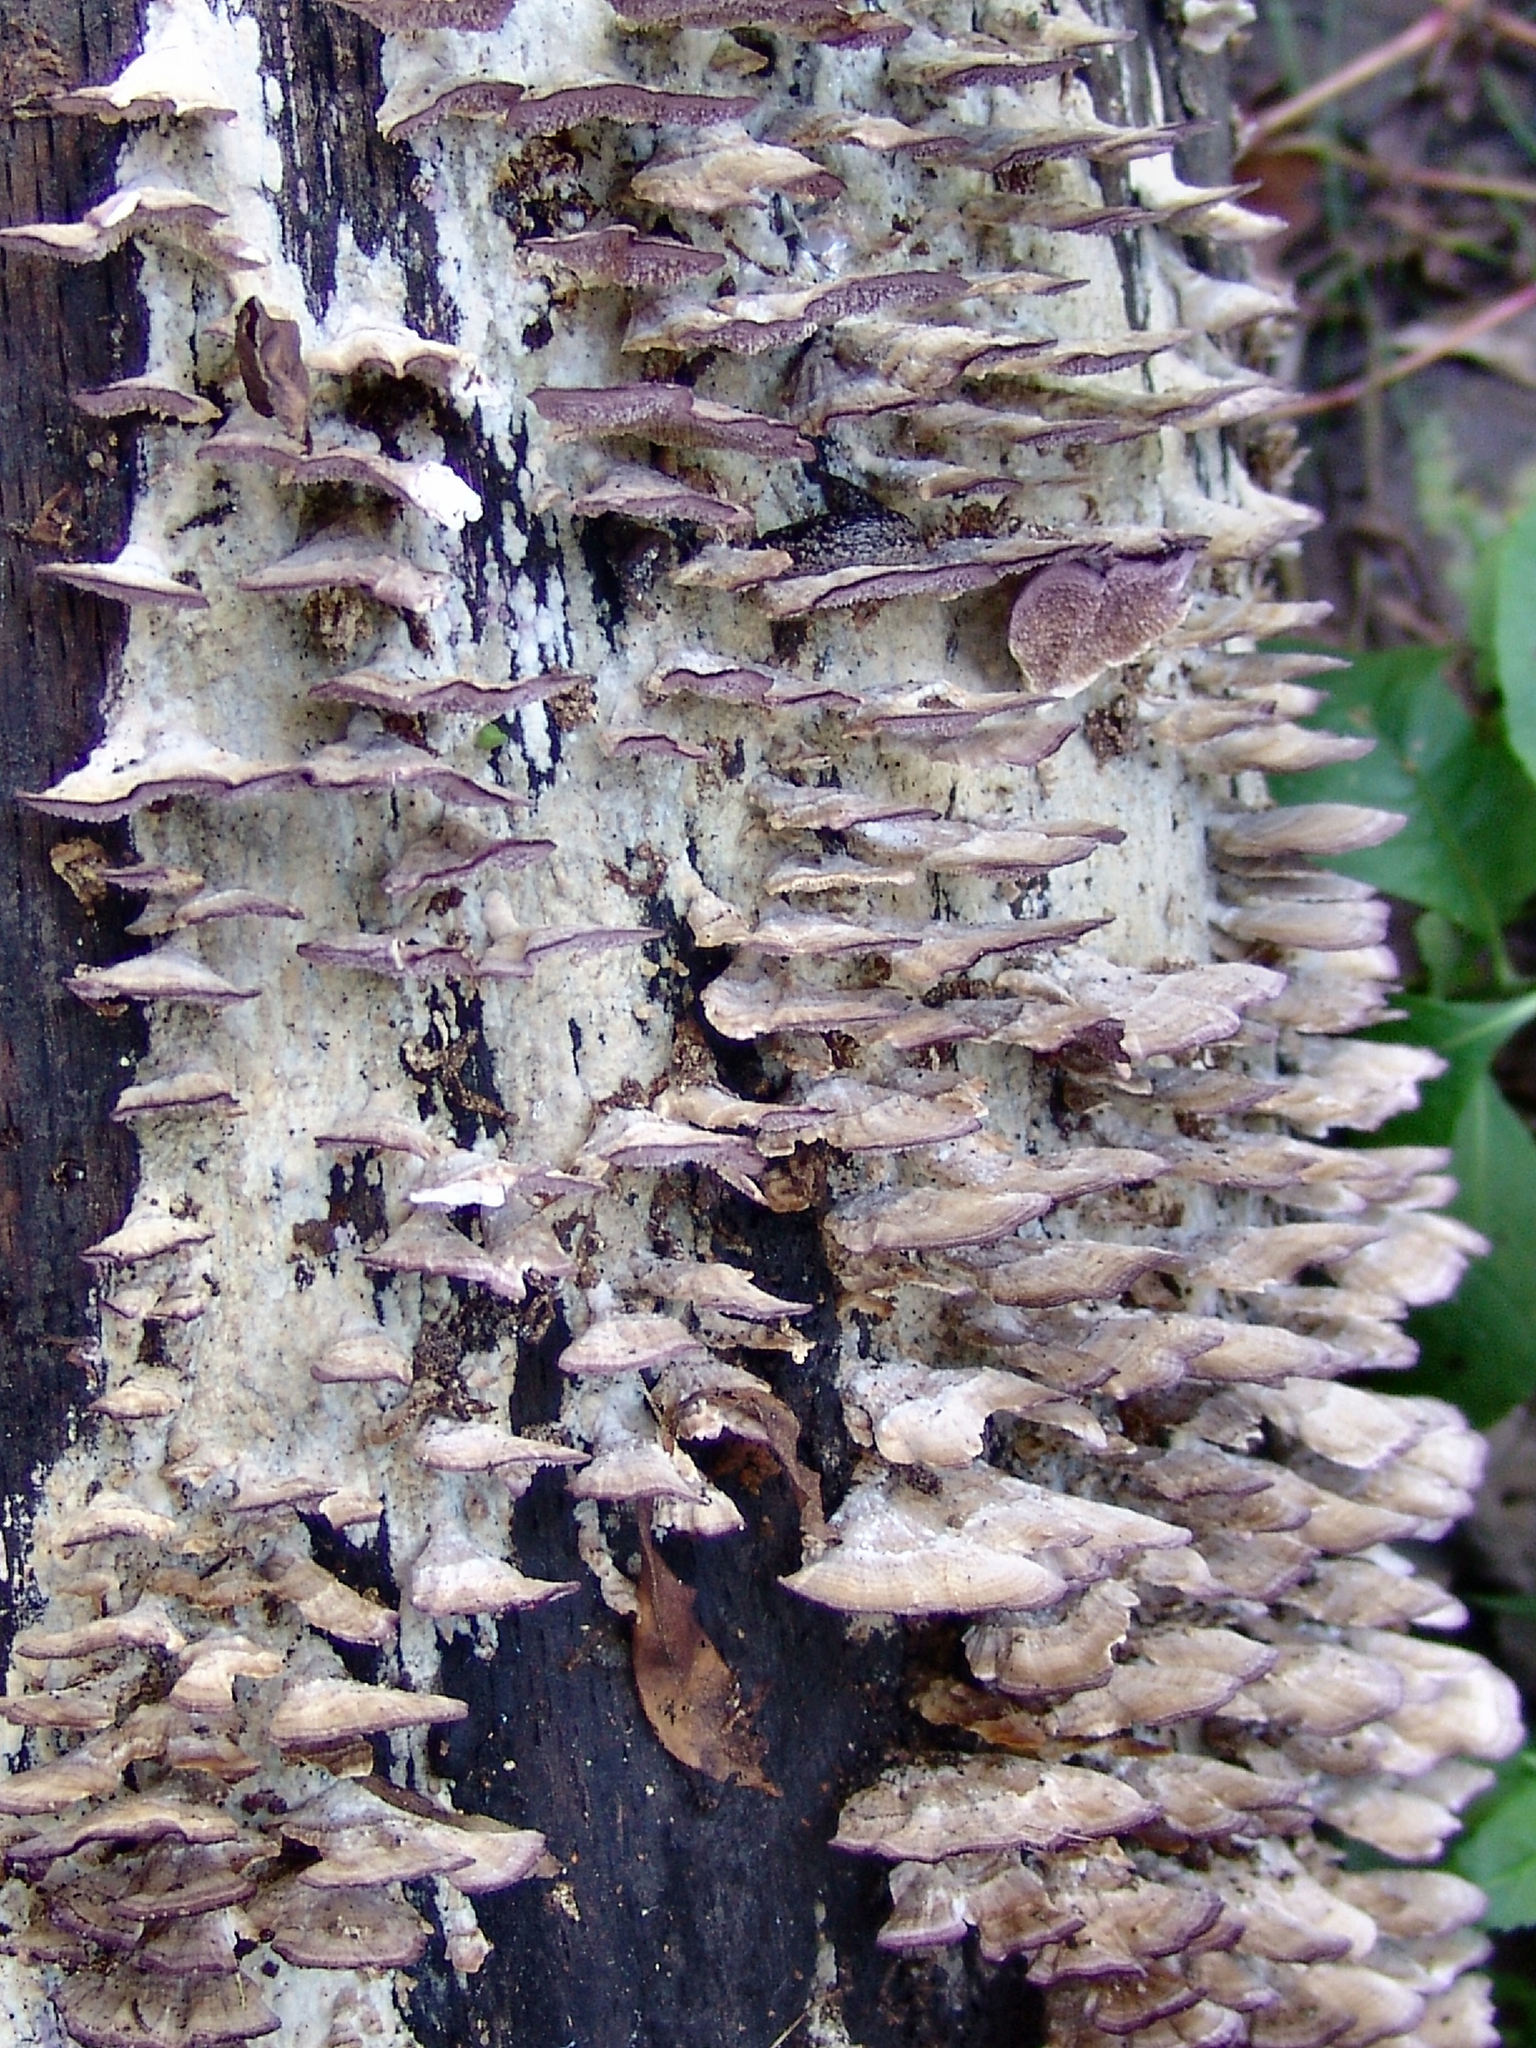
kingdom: Fungi
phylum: Basidiomycota
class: Agaricomycetes
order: Hymenochaetales
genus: Trichaptum
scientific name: Trichaptum biforme
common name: Violet-toothed polypore
